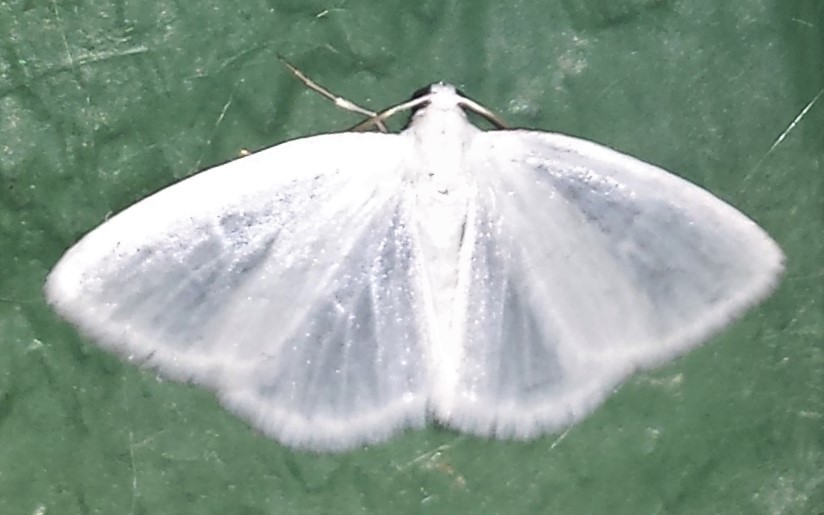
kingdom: Animalia
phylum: Arthropoda
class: Insecta
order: Lepidoptera
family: Geometridae
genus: Lomographa
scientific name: Lomographa vestaliata
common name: White spring moth
